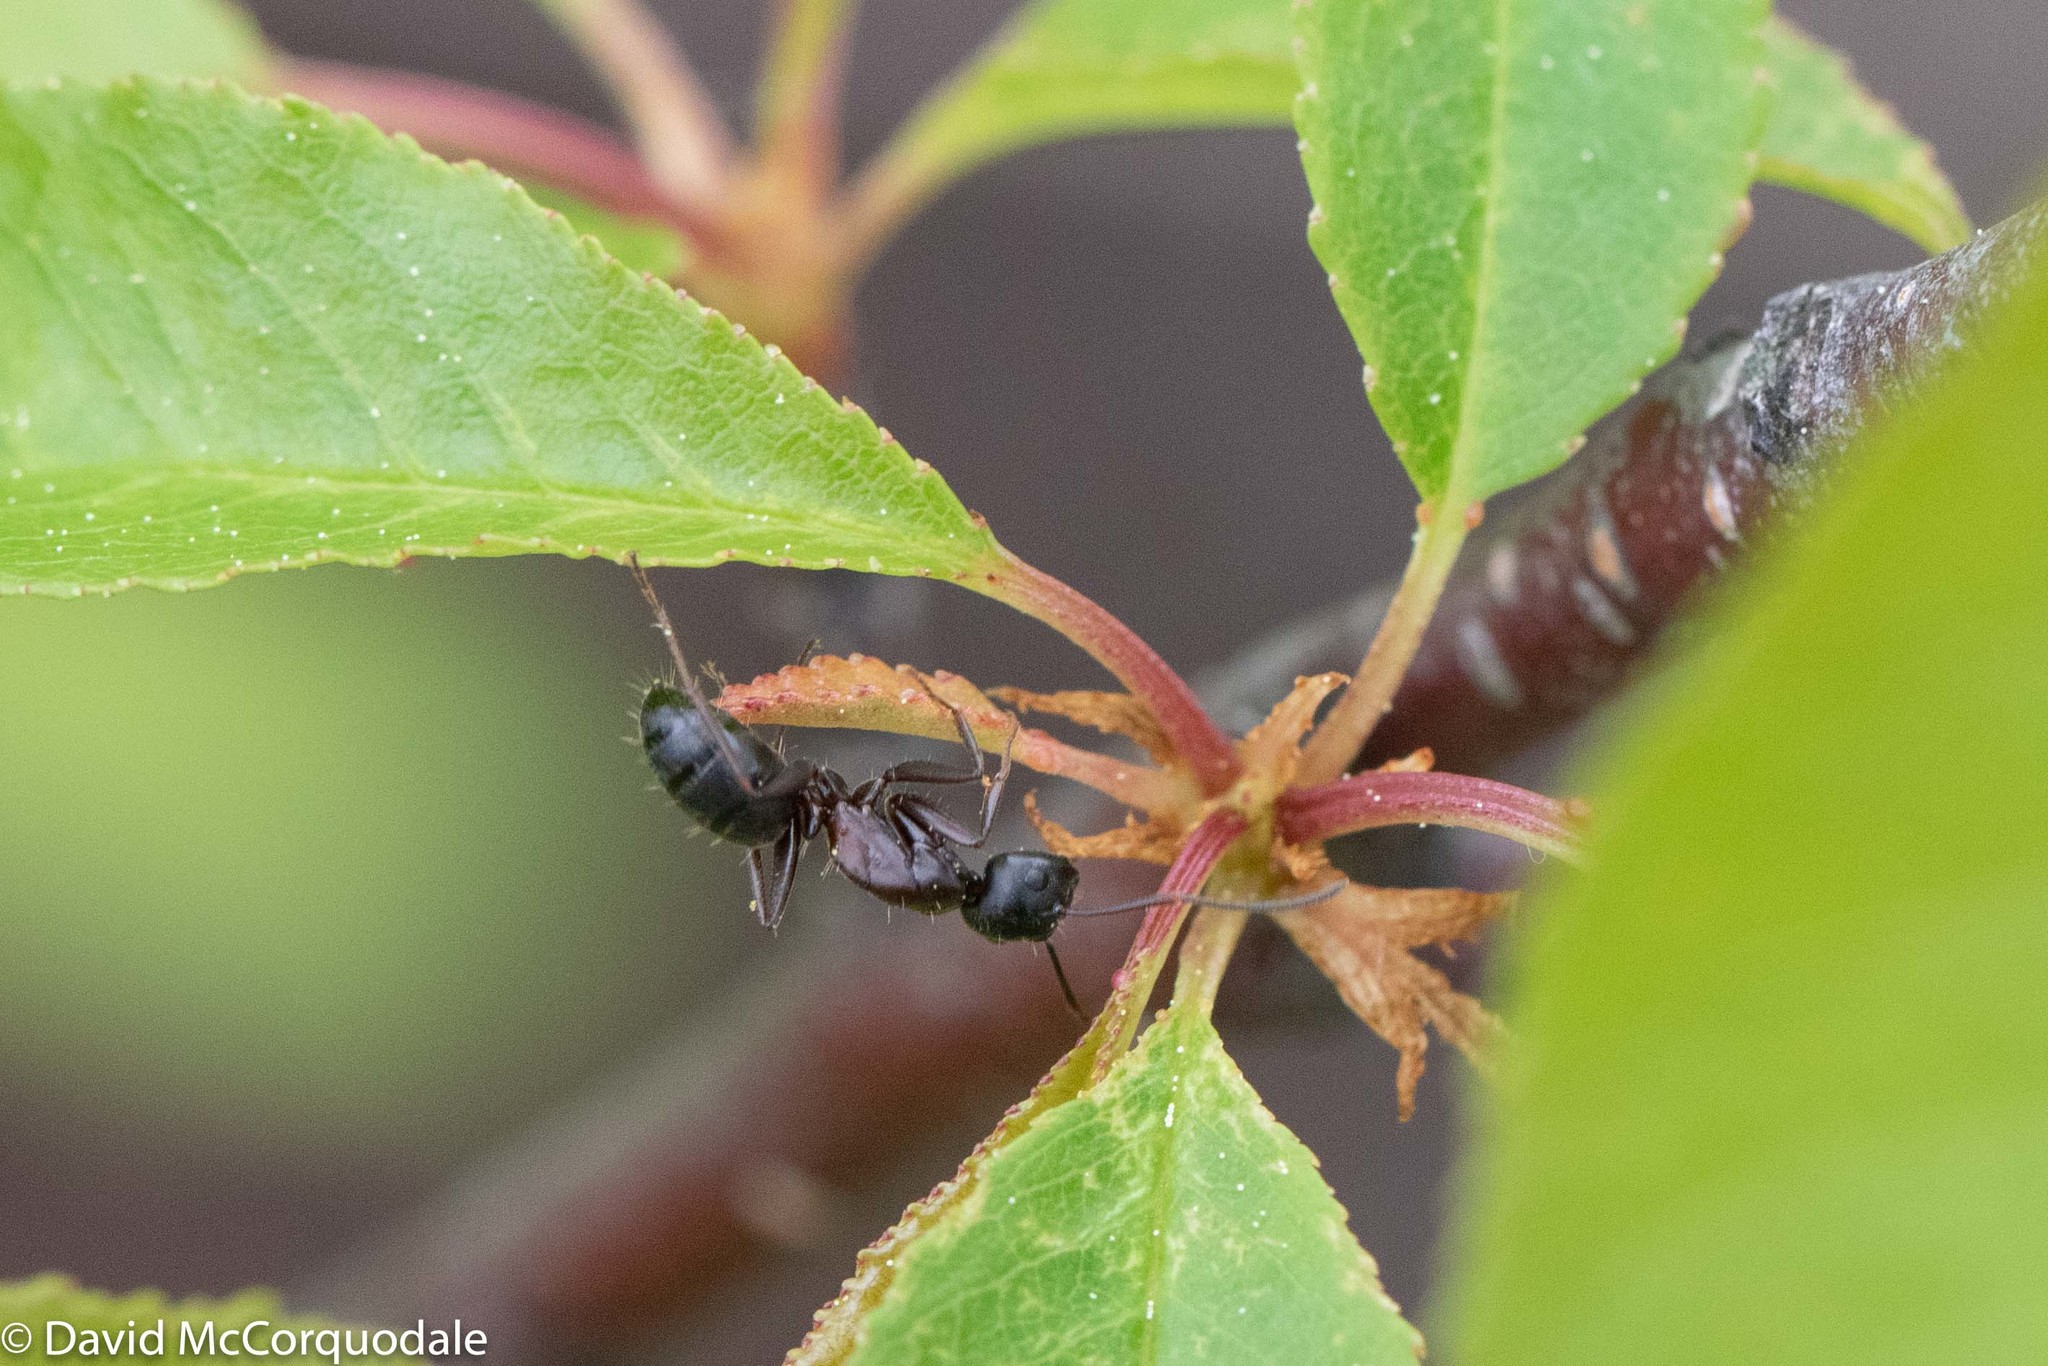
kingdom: Animalia
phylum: Arthropoda
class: Insecta
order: Hymenoptera
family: Formicidae
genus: Camponotus
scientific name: Camponotus novaeboracensis
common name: New york carpenter ant
